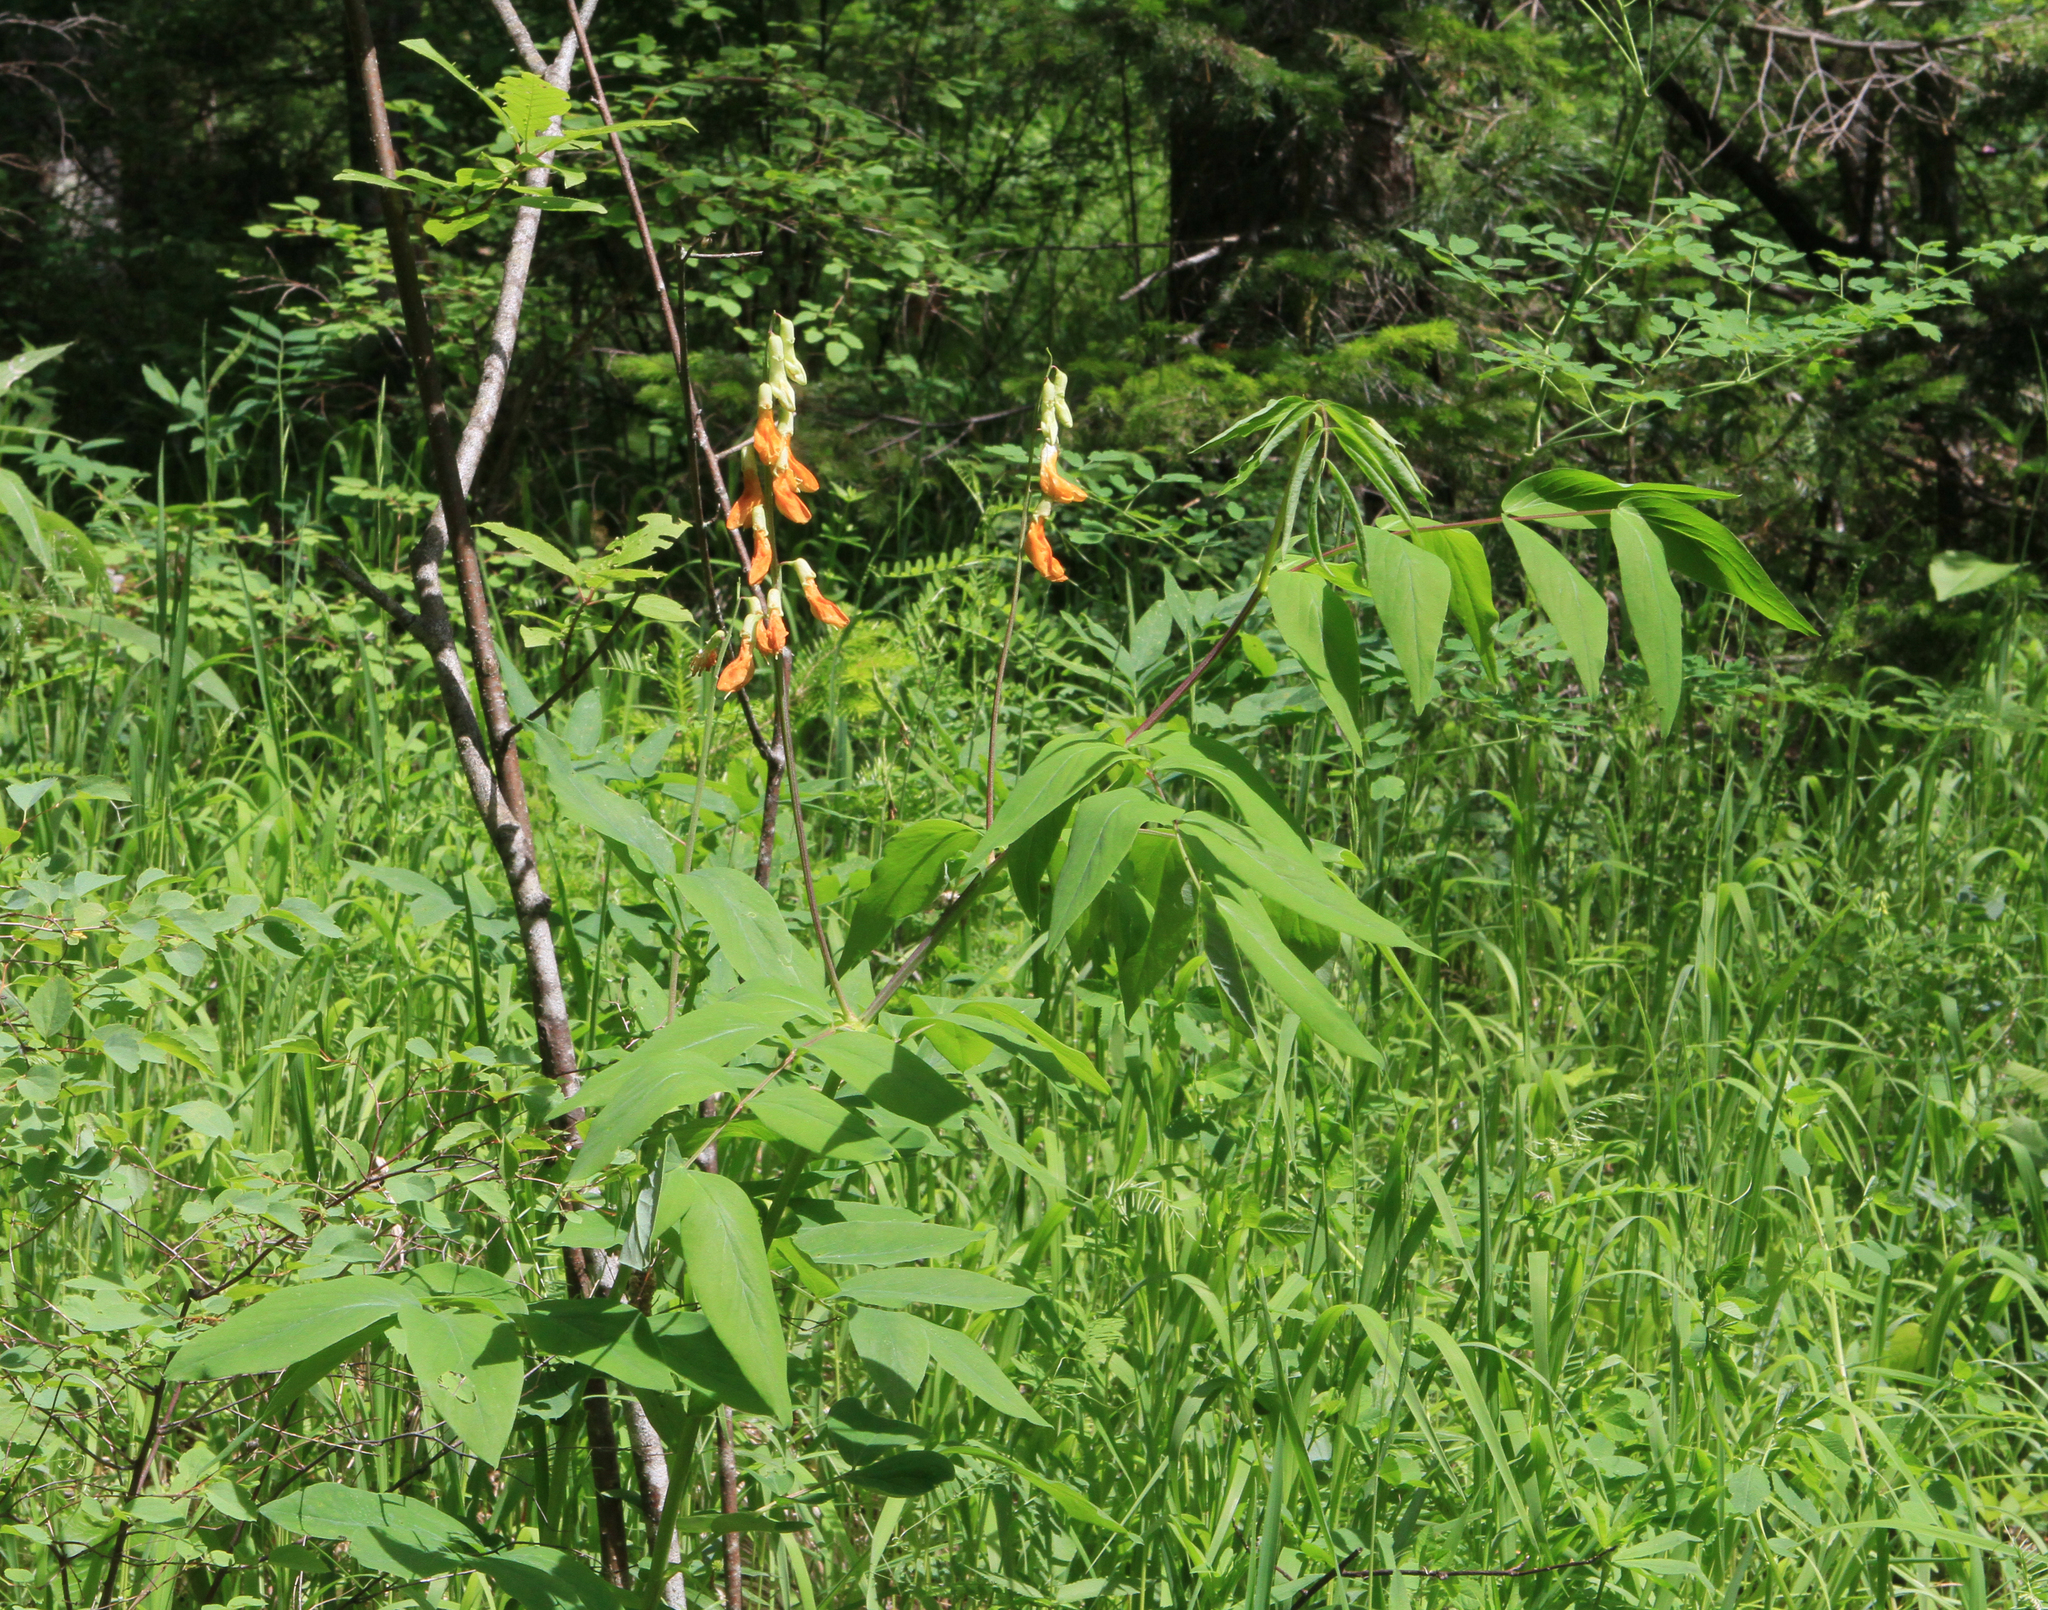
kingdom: Plantae
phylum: Tracheophyta
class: Magnoliopsida
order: Fabales
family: Fabaceae
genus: Lathyrus
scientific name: Lathyrus gmelinii
